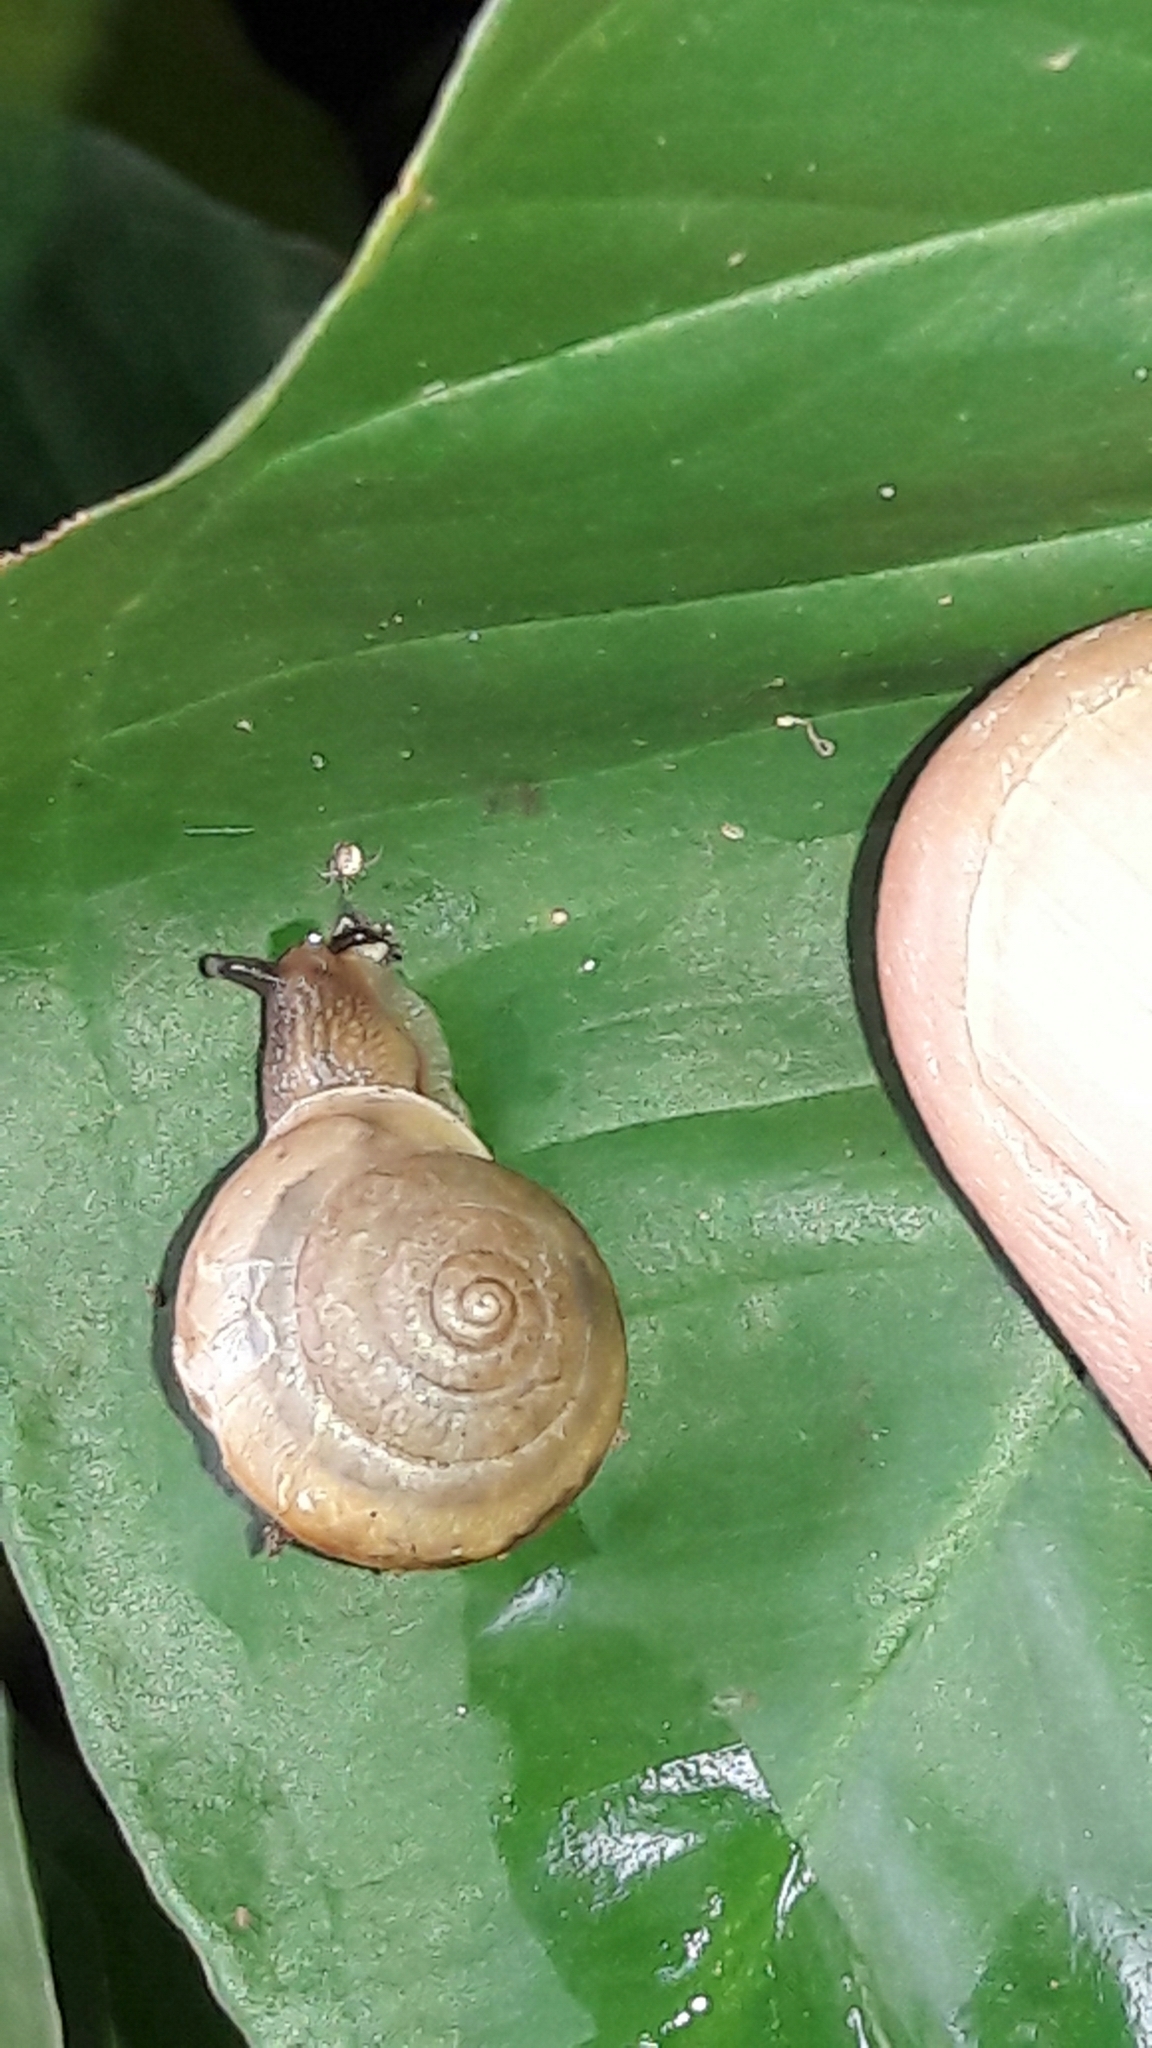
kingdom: Animalia
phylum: Mollusca
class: Gastropoda
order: Stylommatophora
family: Camaenidae
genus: Bradybaena
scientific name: Bradybaena similaris
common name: Asian trampsnail
